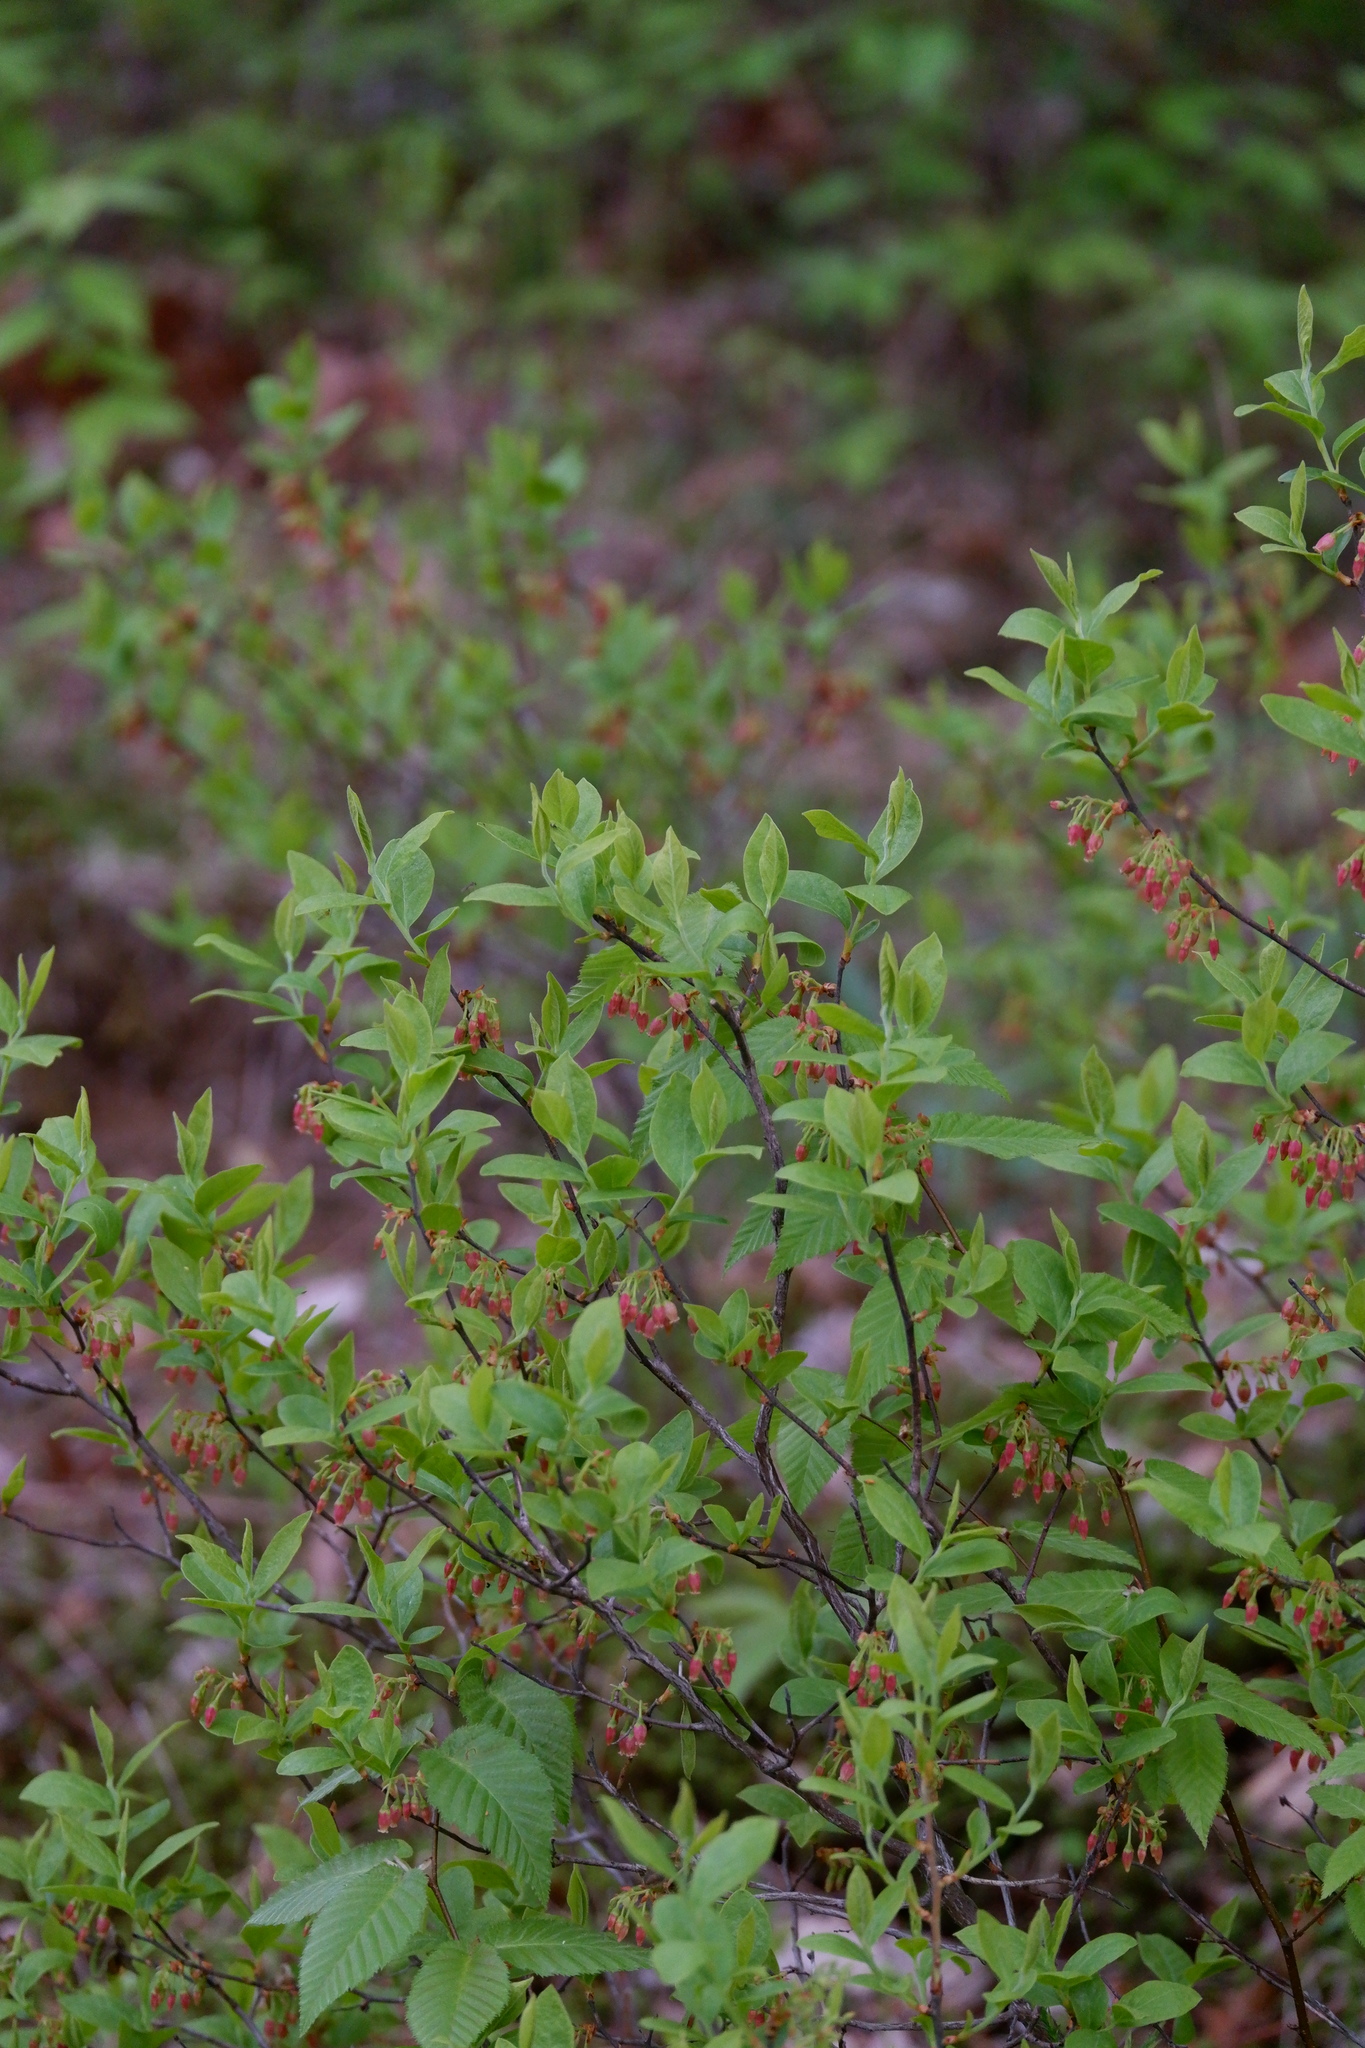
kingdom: Plantae
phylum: Tracheophyta
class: Magnoliopsida
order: Ericales
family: Ericaceae
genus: Gaylussacia
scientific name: Gaylussacia baccata
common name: Black huckleberry
